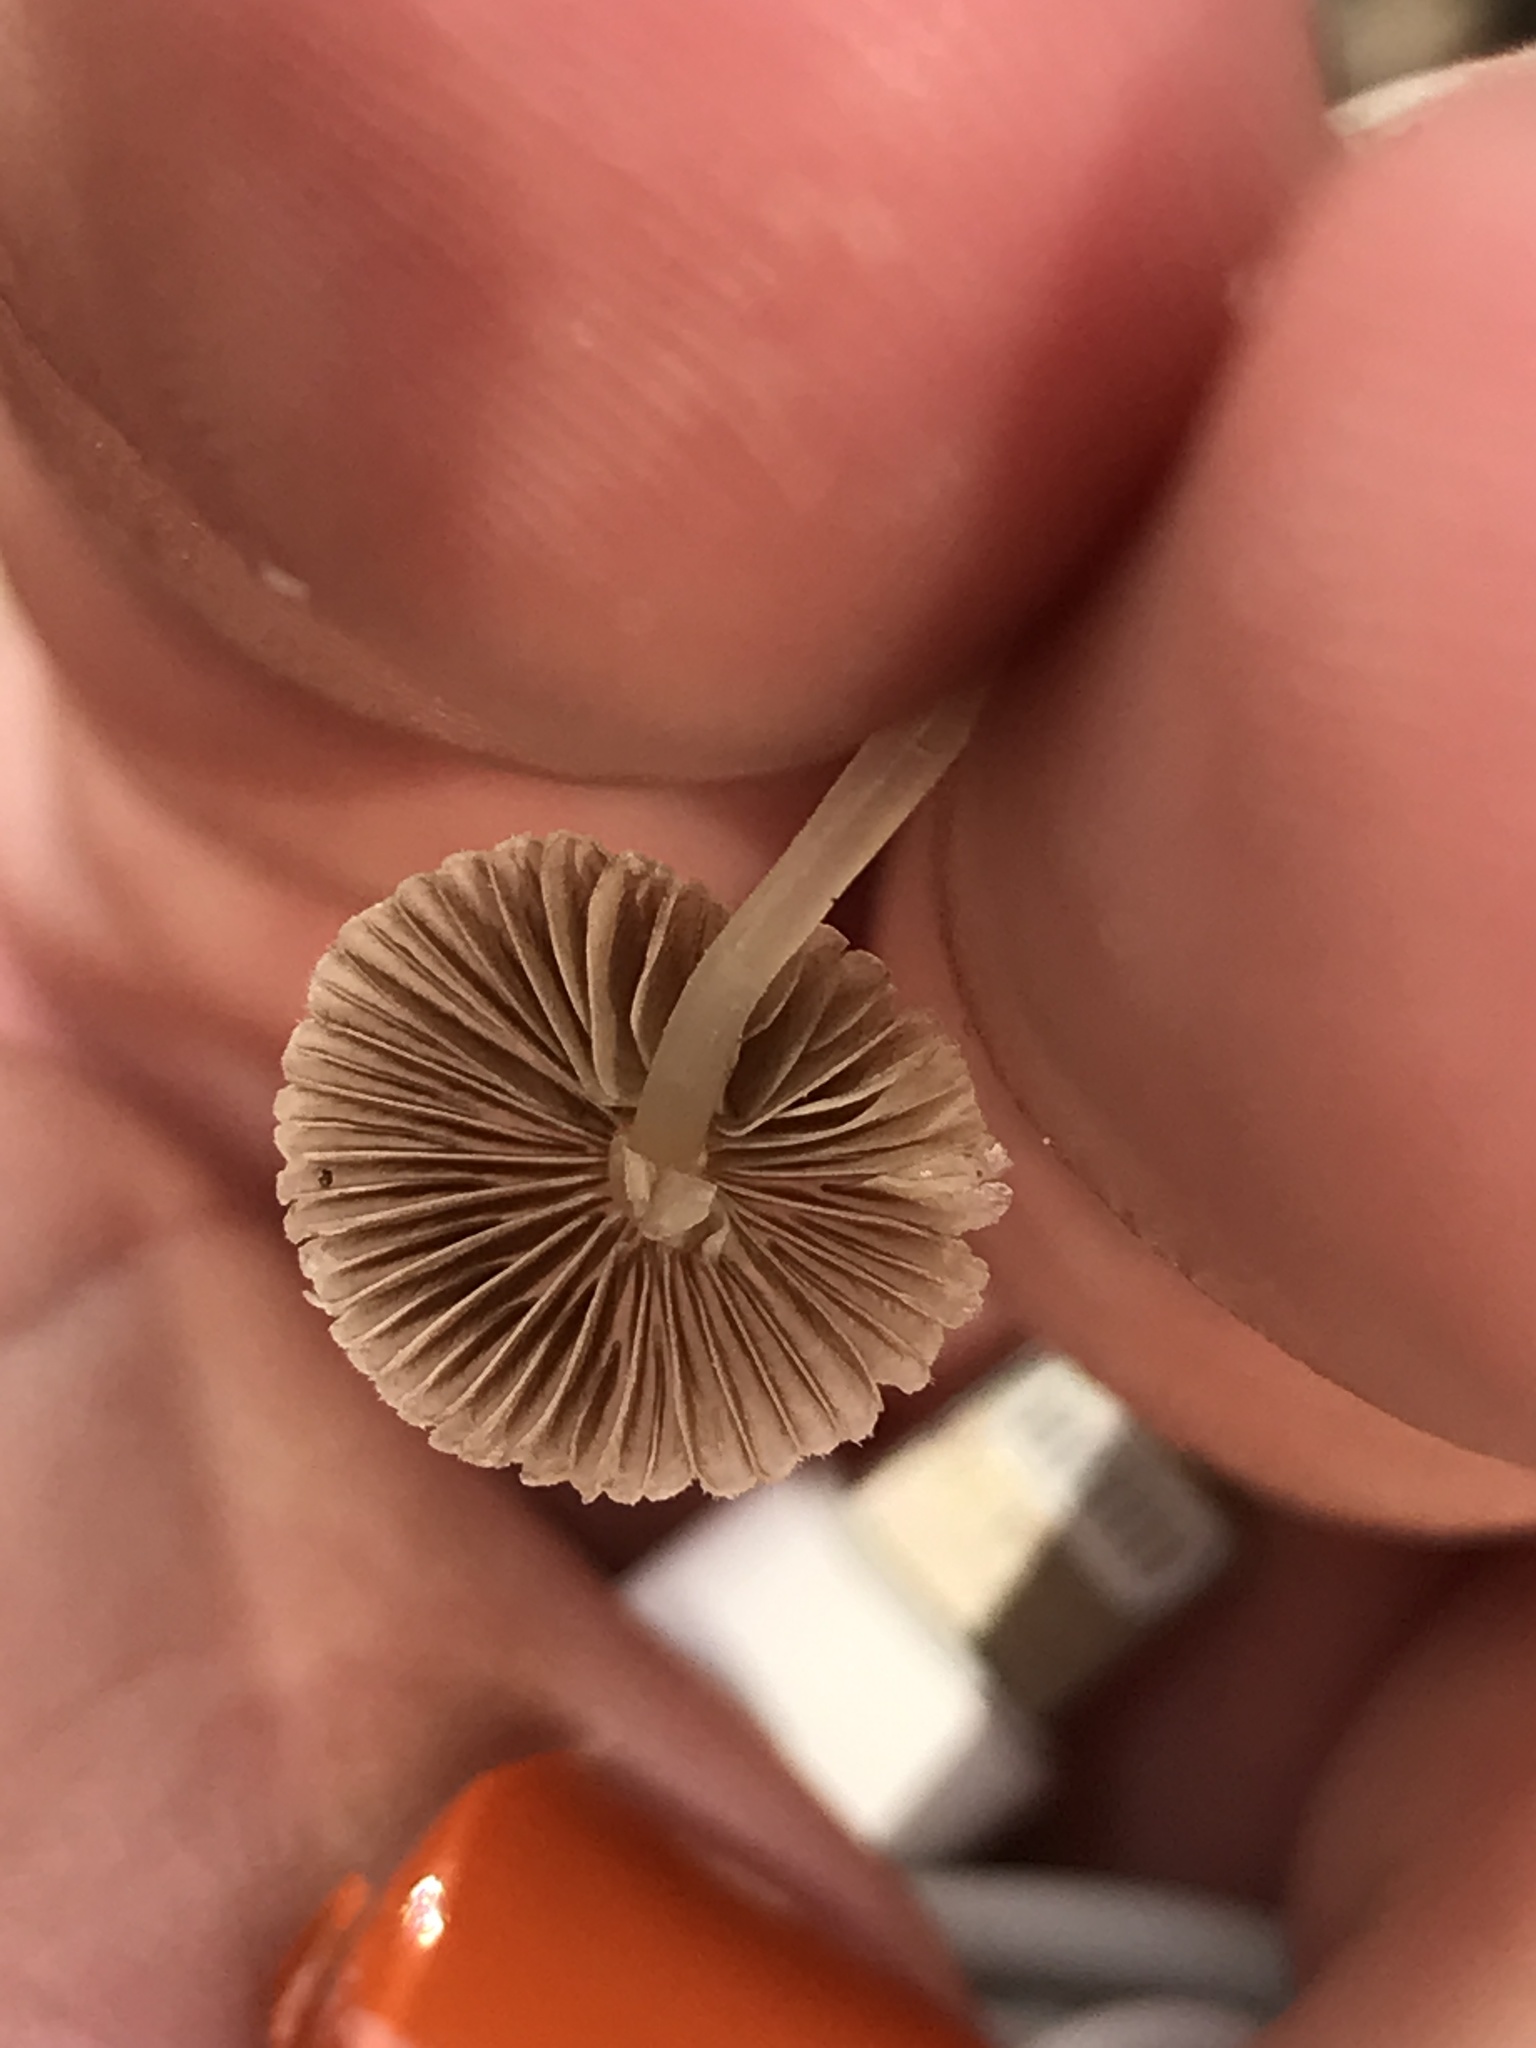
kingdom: Fungi
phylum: Basidiomycota
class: Agaricomycetes
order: Agaricales
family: Psathyrellaceae
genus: Coprinellus
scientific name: Coprinellus disseminatus
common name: Fairies' bonnets
